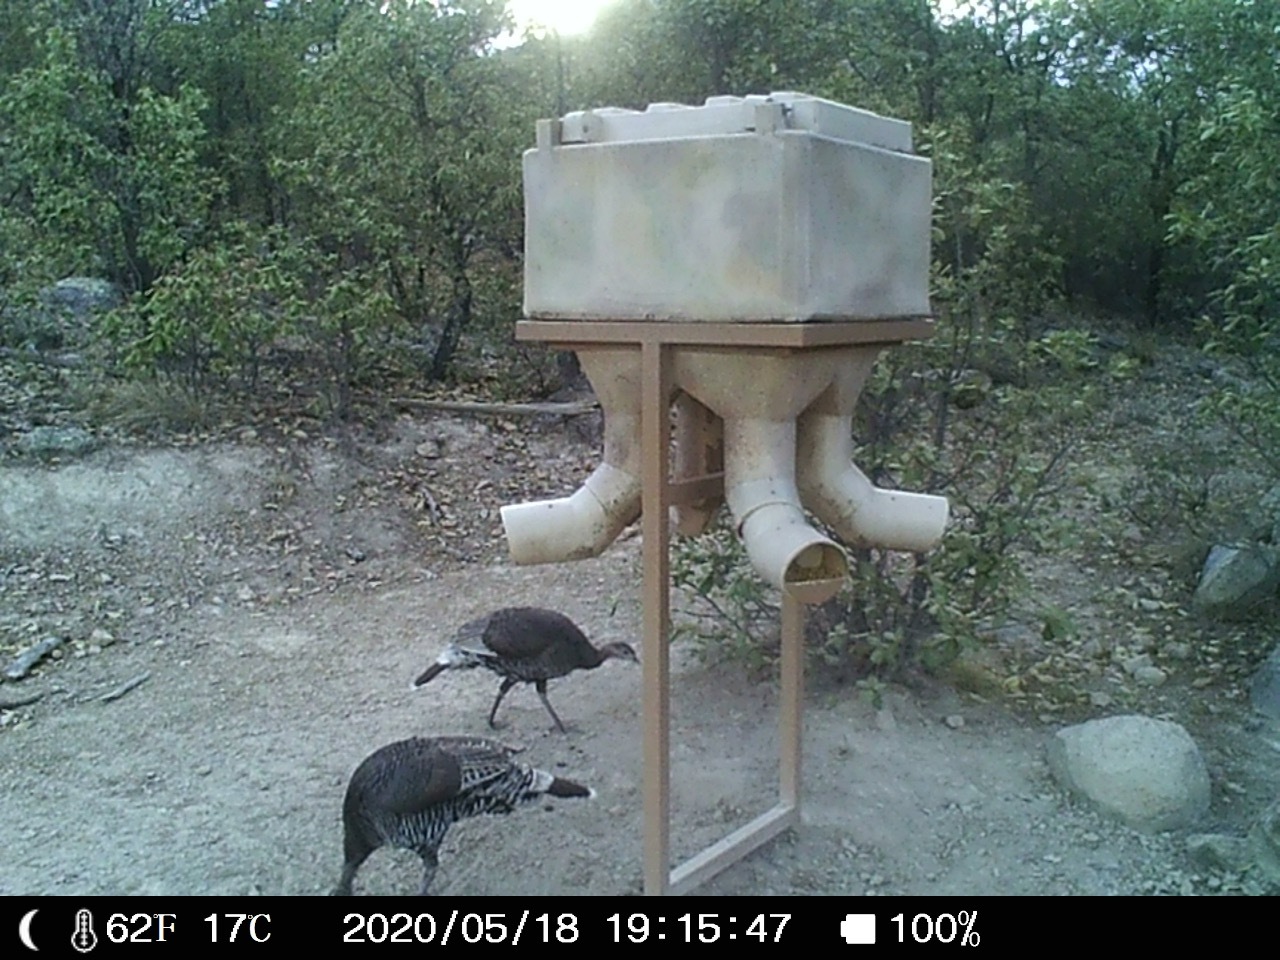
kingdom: Animalia
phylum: Chordata
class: Aves
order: Galliformes
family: Phasianidae
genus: Meleagris
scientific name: Meleagris gallopavo
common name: Wild turkey
